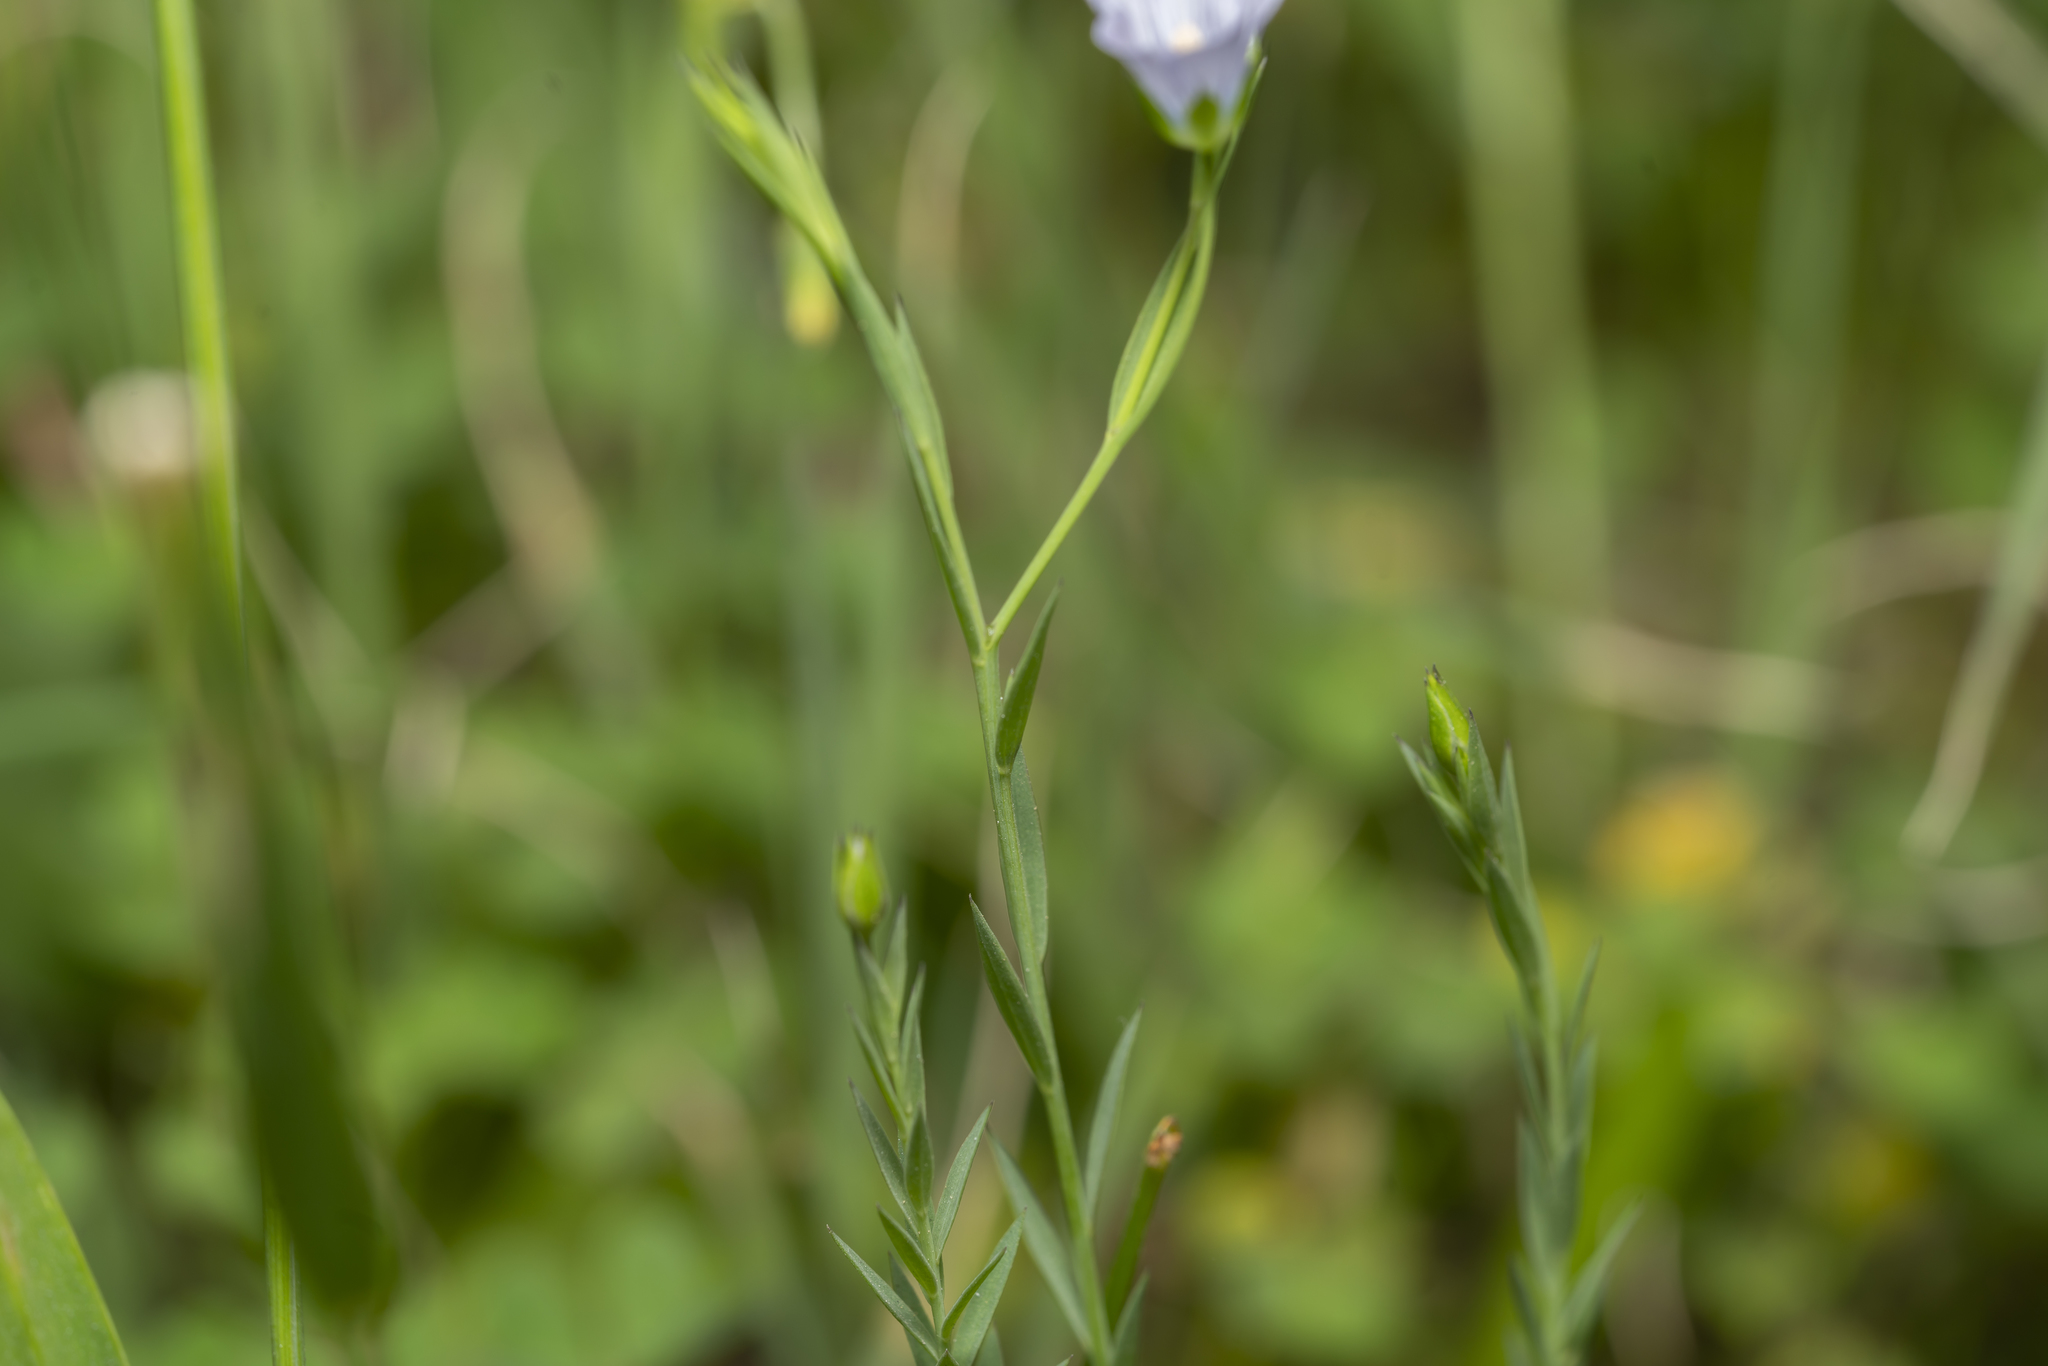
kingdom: Plantae
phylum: Tracheophyta
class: Magnoliopsida
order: Malpighiales
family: Linaceae
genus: Linum
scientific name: Linum bienne
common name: Pale flax
